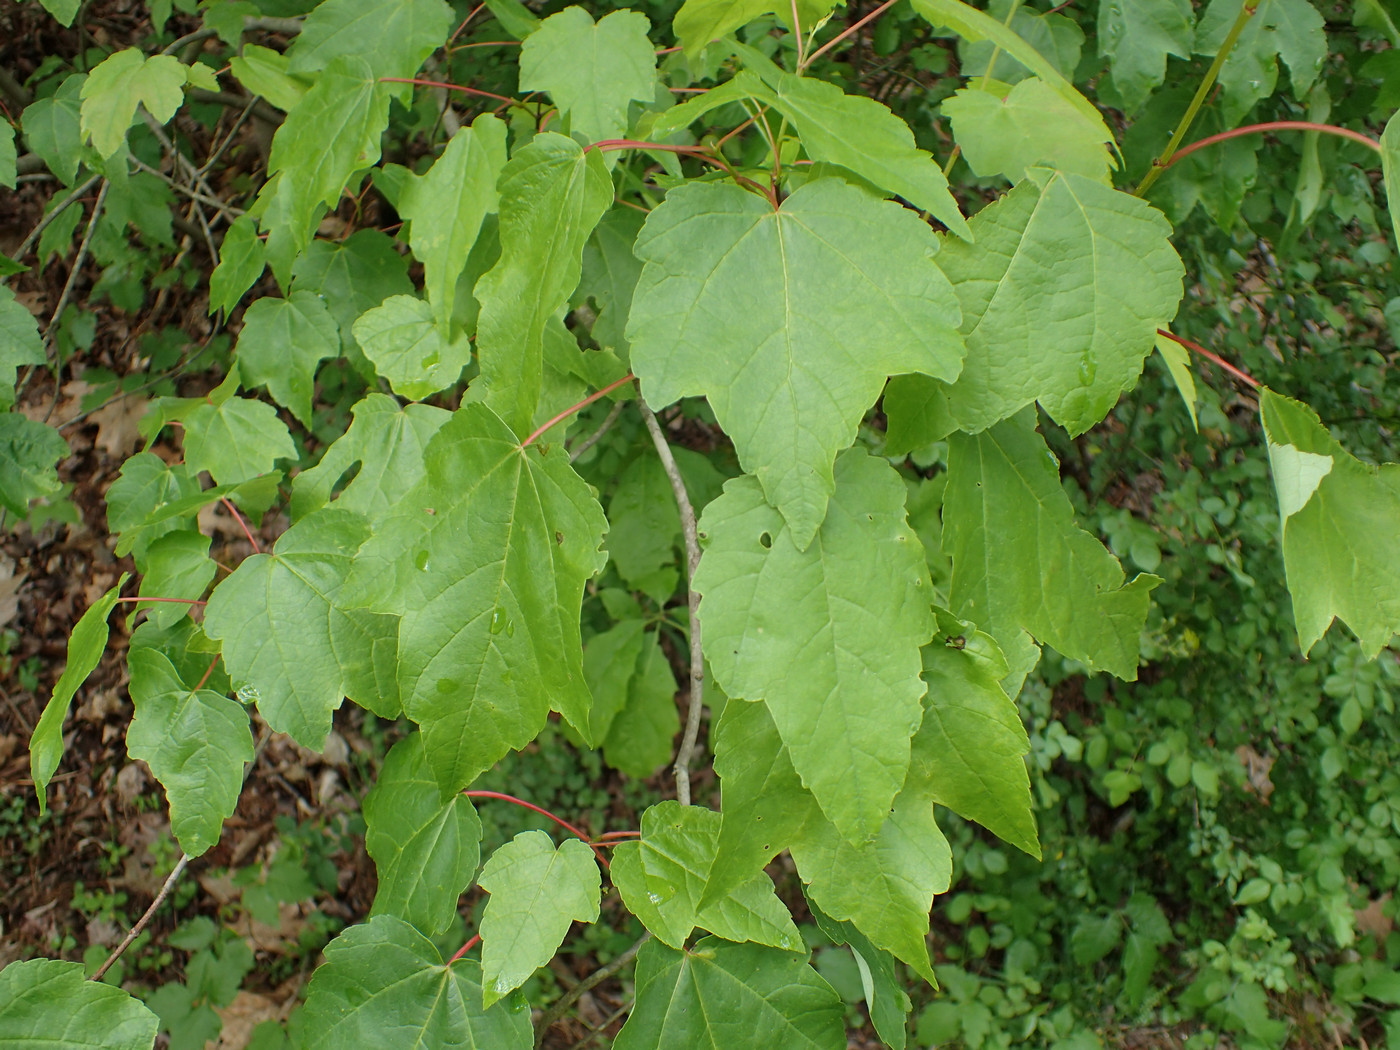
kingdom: Plantae
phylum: Tracheophyta
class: Magnoliopsida
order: Sapindales
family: Sapindaceae
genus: Acer
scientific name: Acer rubrum
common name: Red maple
